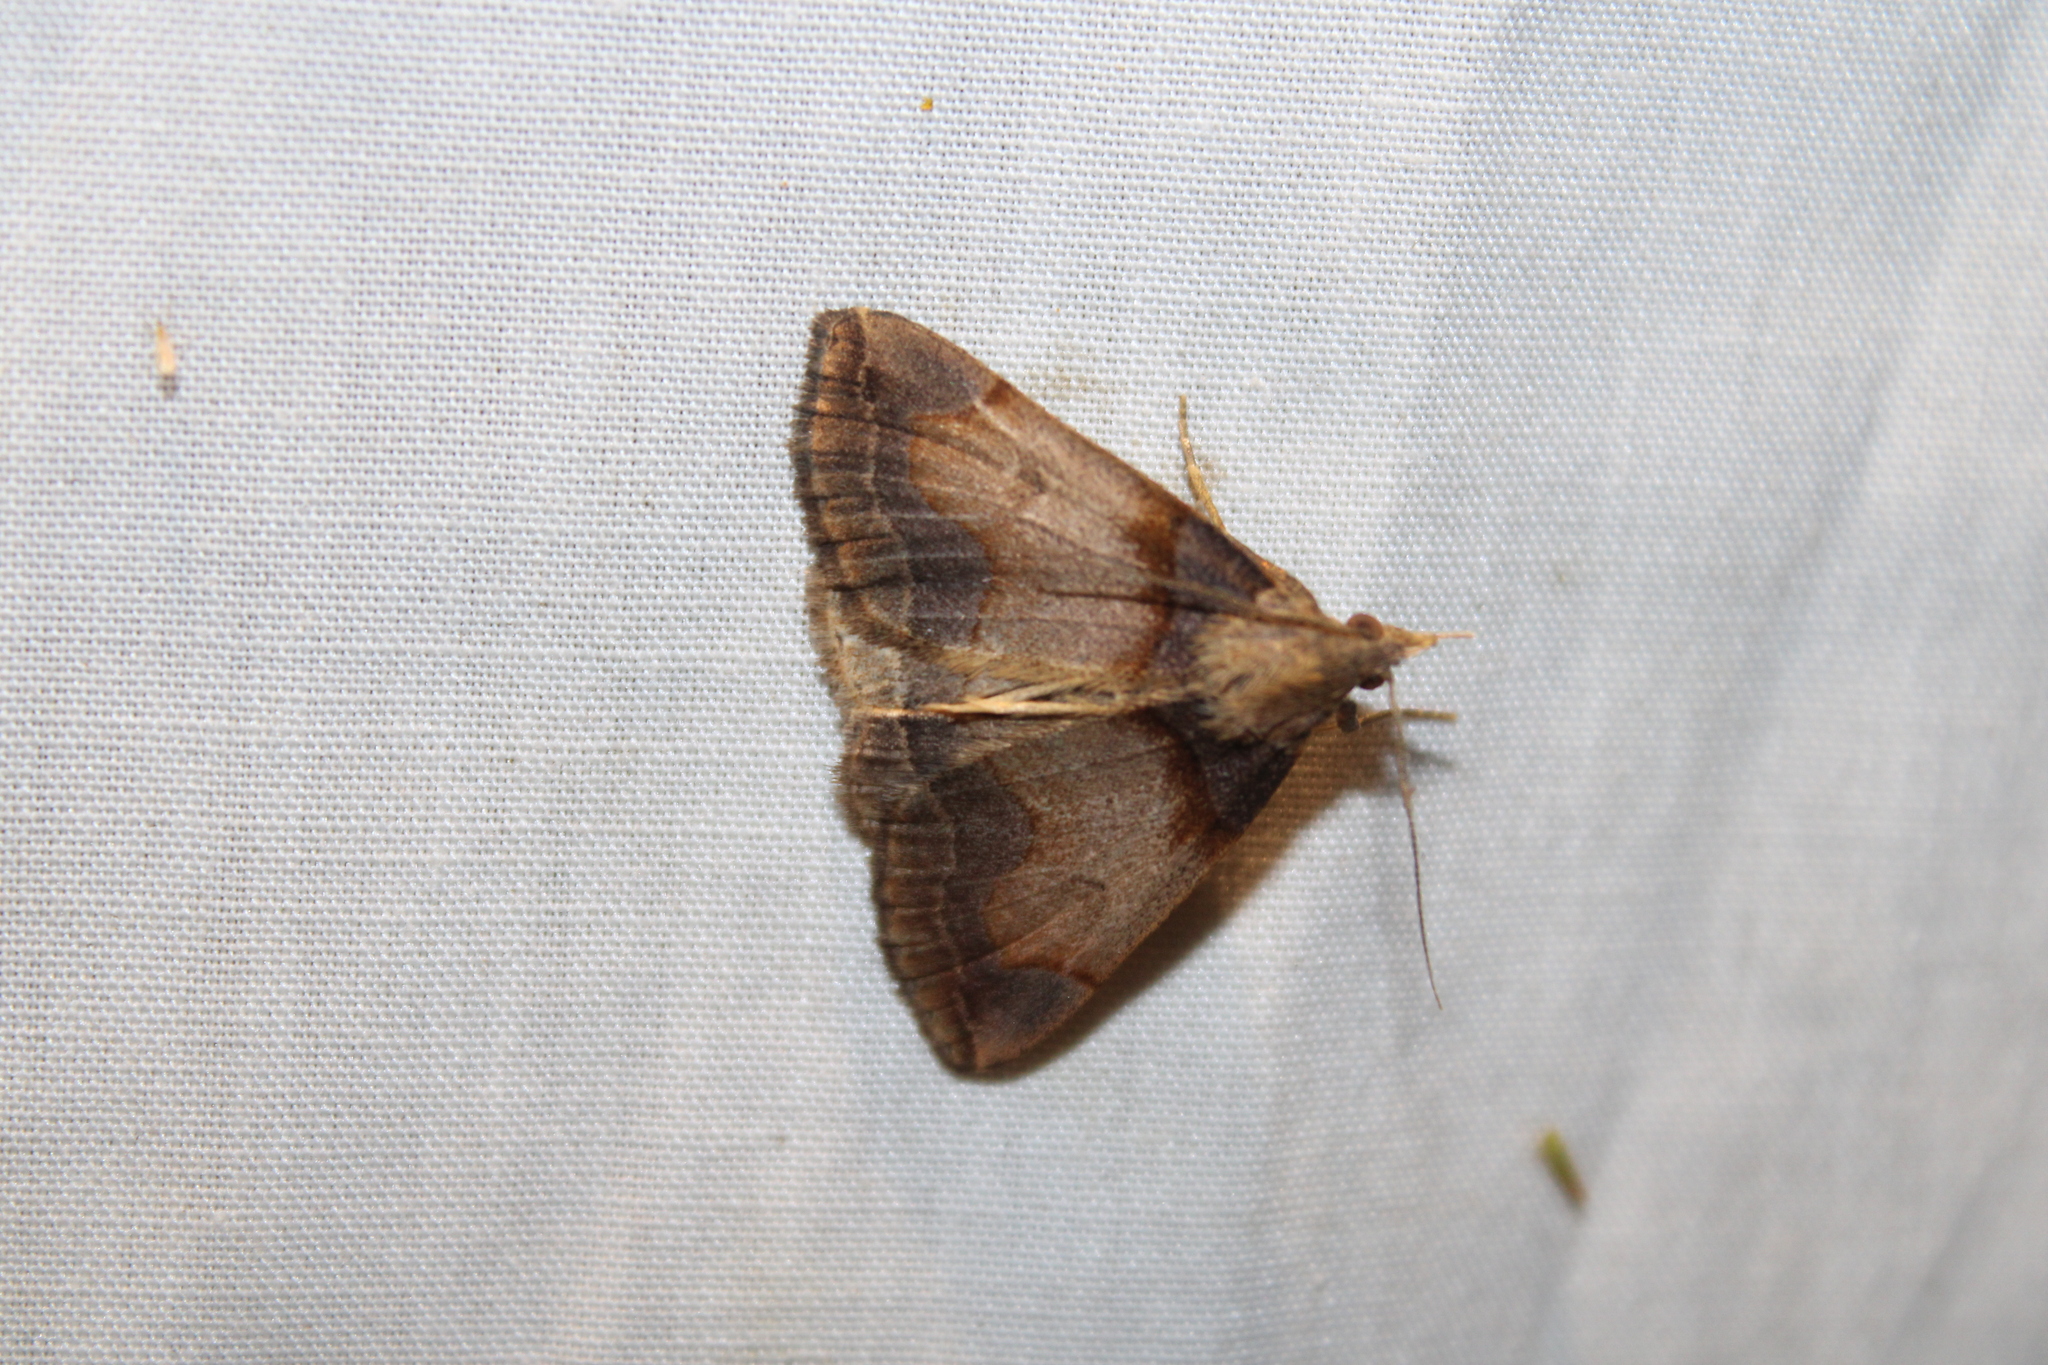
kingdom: Animalia
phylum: Arthropoda
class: Insecta
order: Lepidoptera
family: Erebidae
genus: Zanclognatha
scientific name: Zanclognatha laevigata
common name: Variable fan-foot
